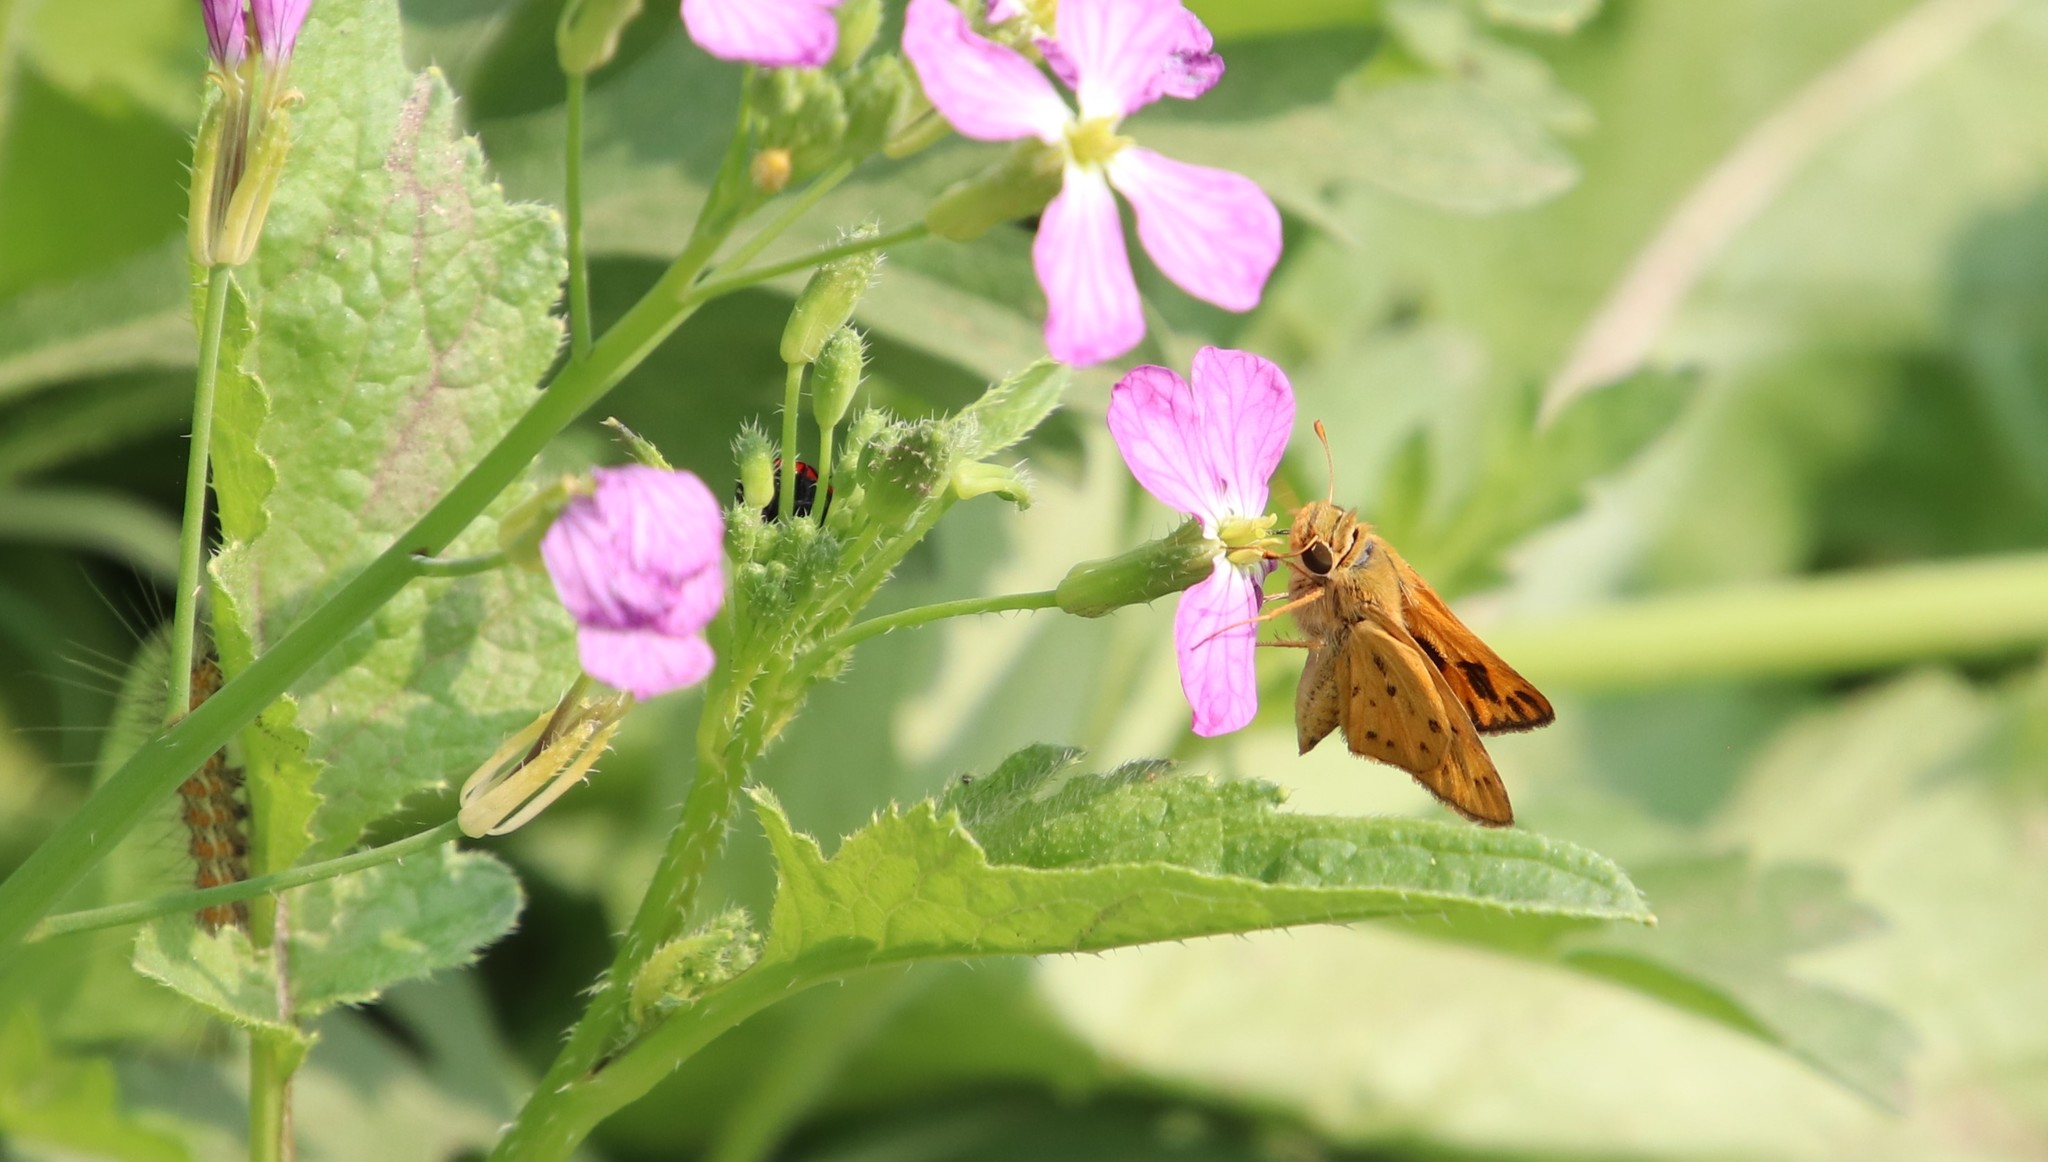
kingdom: Animalia
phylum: Arthropoda
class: Insecta
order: Lepidoptera
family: Hesperiidae
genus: Hylephila
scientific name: Hylephila phyleus
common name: Fiery skipper
